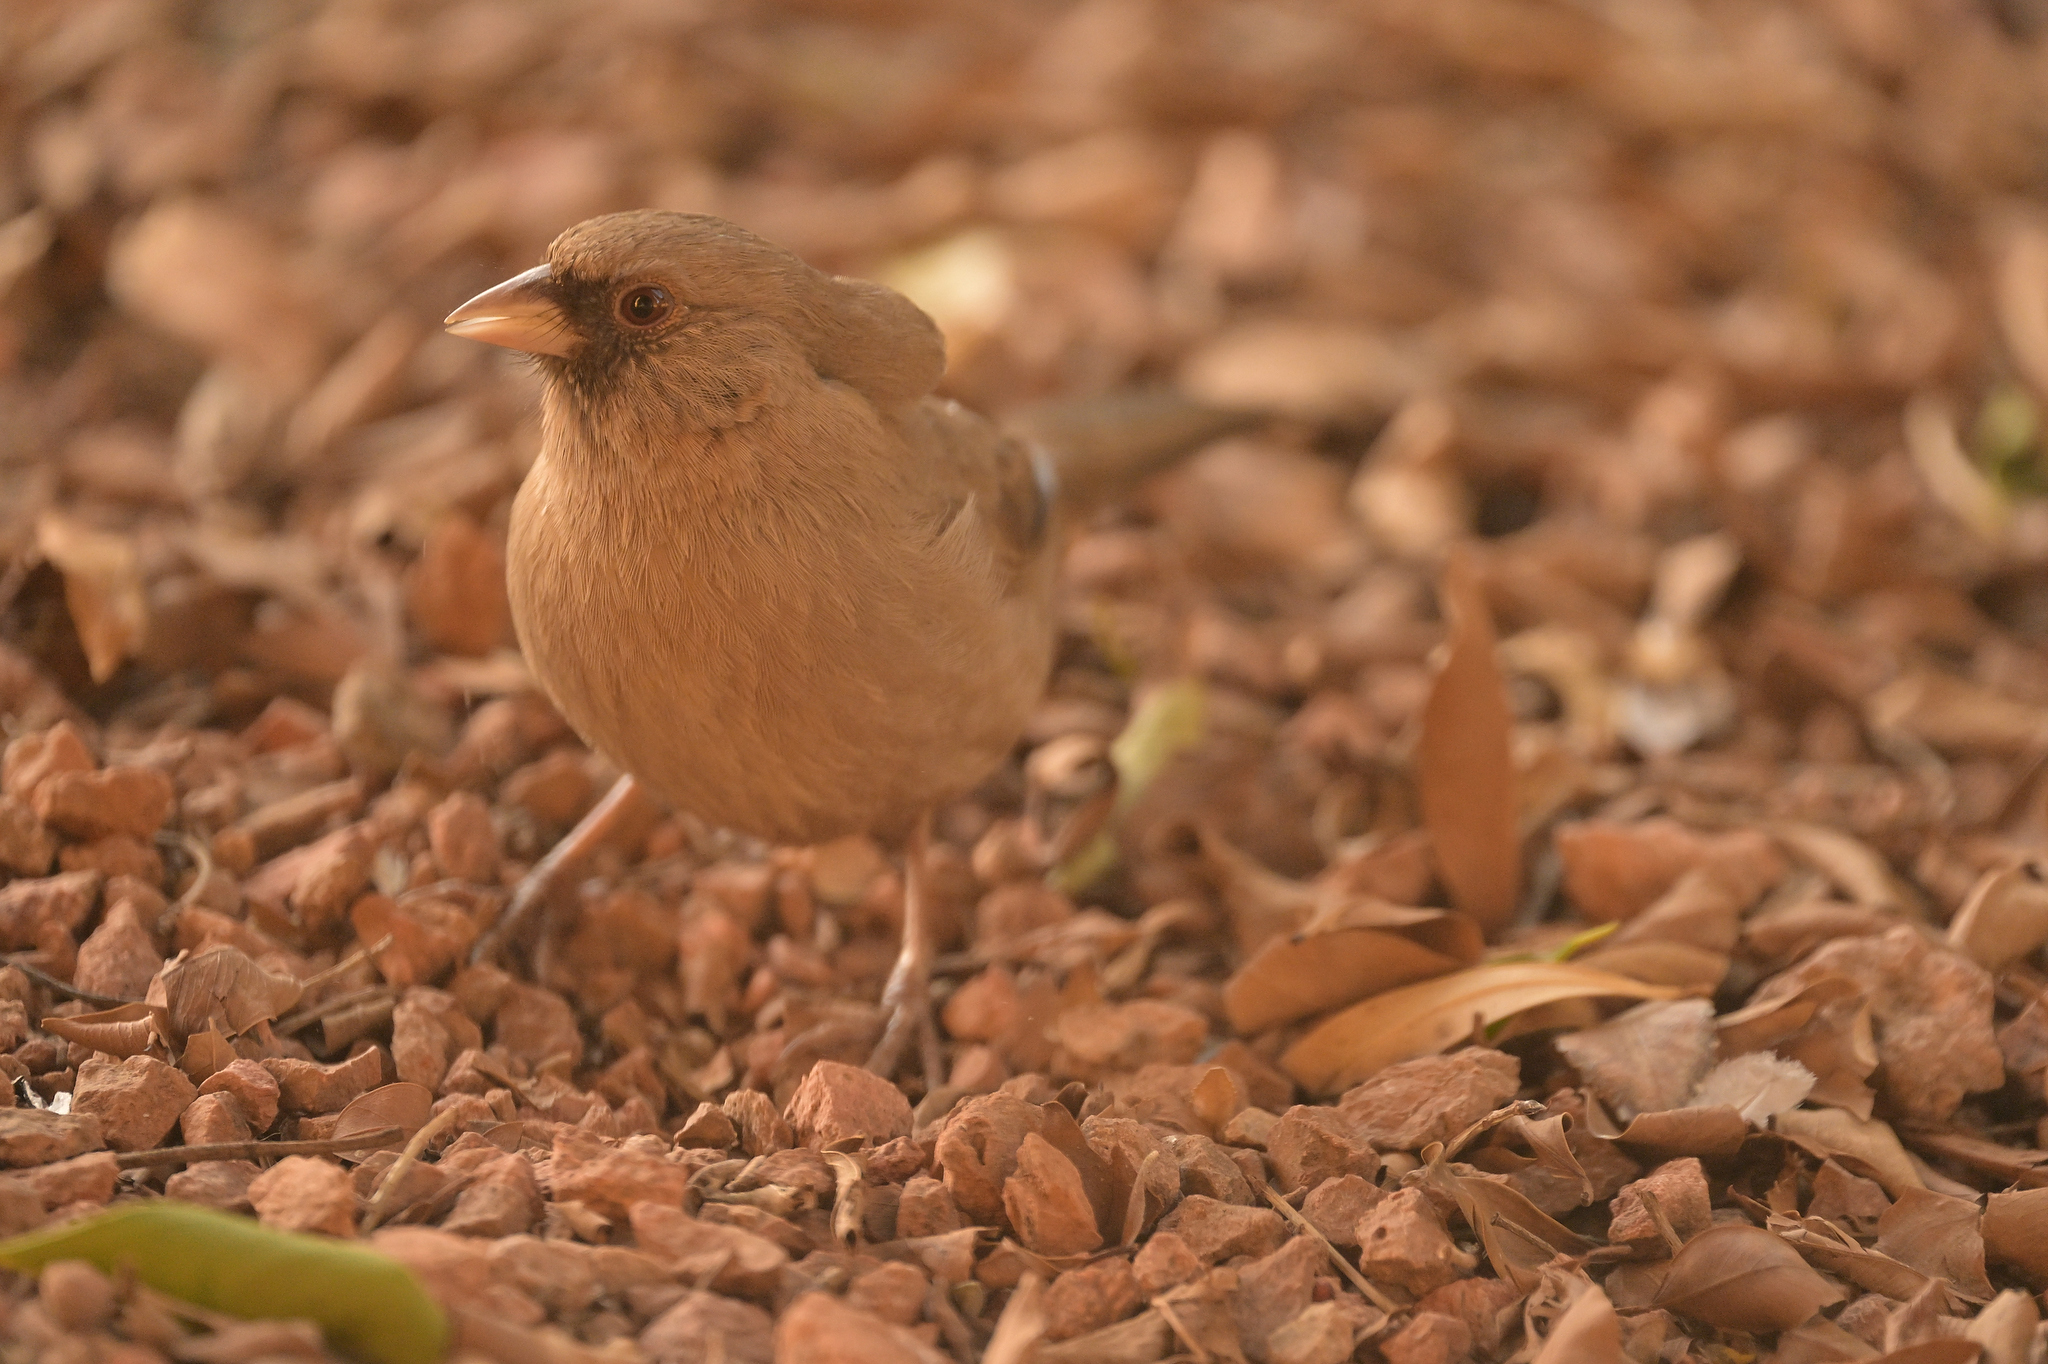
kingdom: Animalia
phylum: Chordata
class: Aves
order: Passeriformes
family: Passerellidae
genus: Melozone
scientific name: Melozone aberti
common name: Abert's towhee
